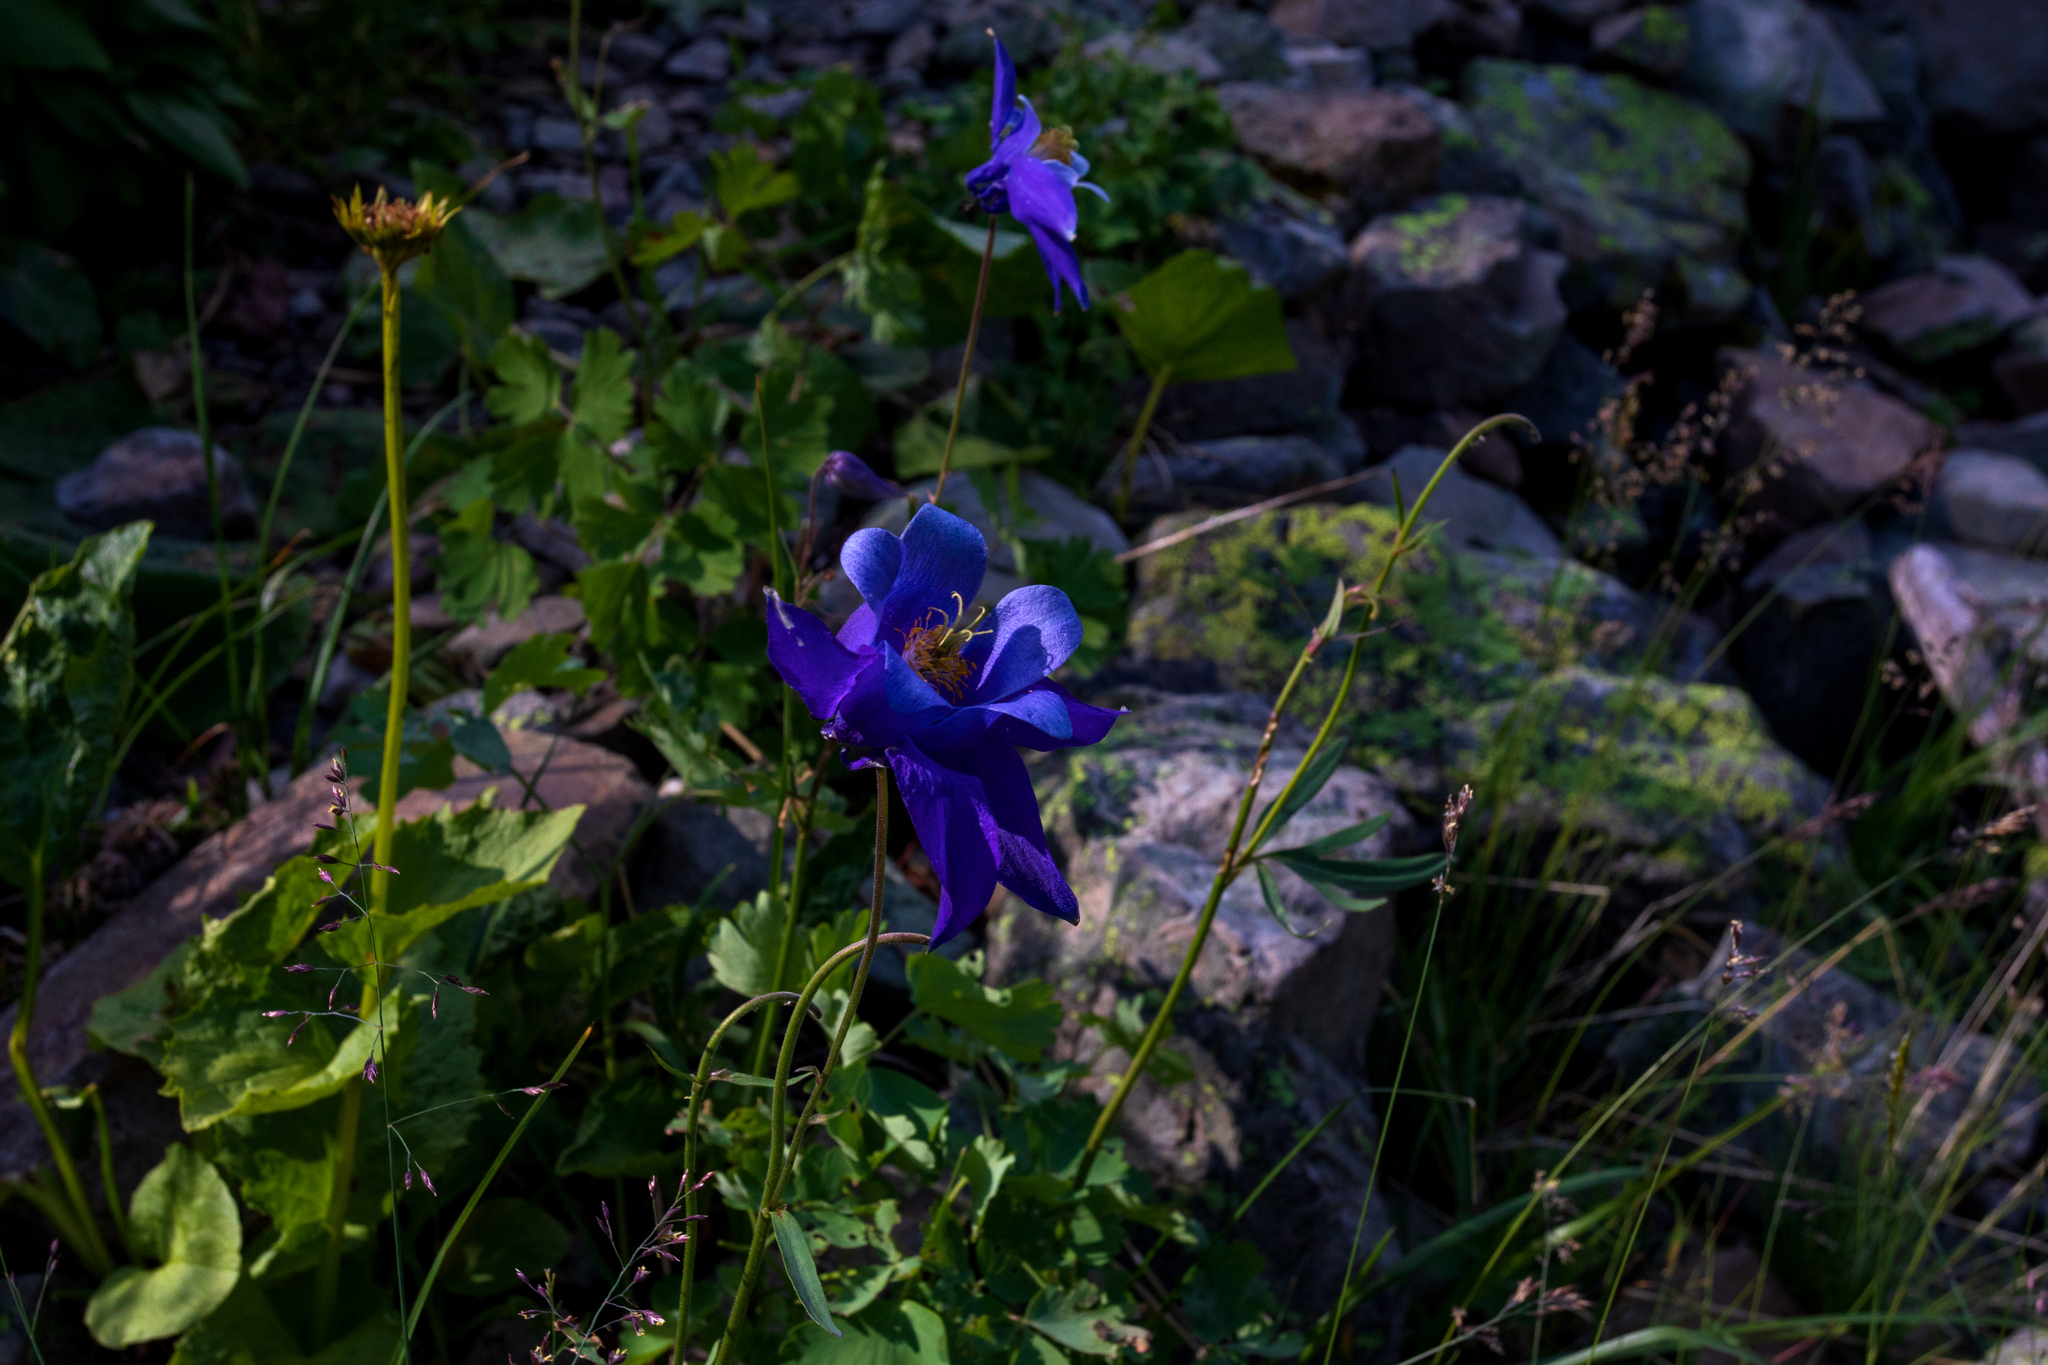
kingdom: Plantae
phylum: Tracheophyta
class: Magnoliopsida
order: Ranunculales
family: Ranunculaceae
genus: Aquilegia
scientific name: Aquilegia glandulosa
